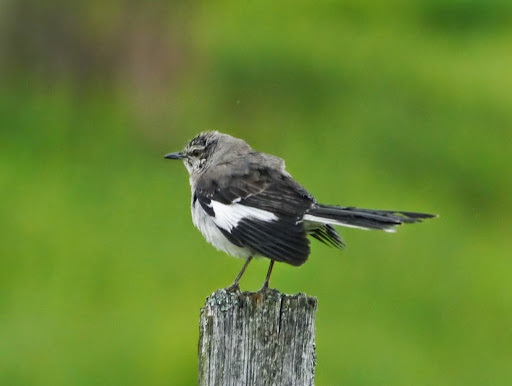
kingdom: Animalia
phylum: Chordata
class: Aves
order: Passeriformes
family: Mimidae
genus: Mimus
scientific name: Mimus polyglottos
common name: Northern mockingbird
